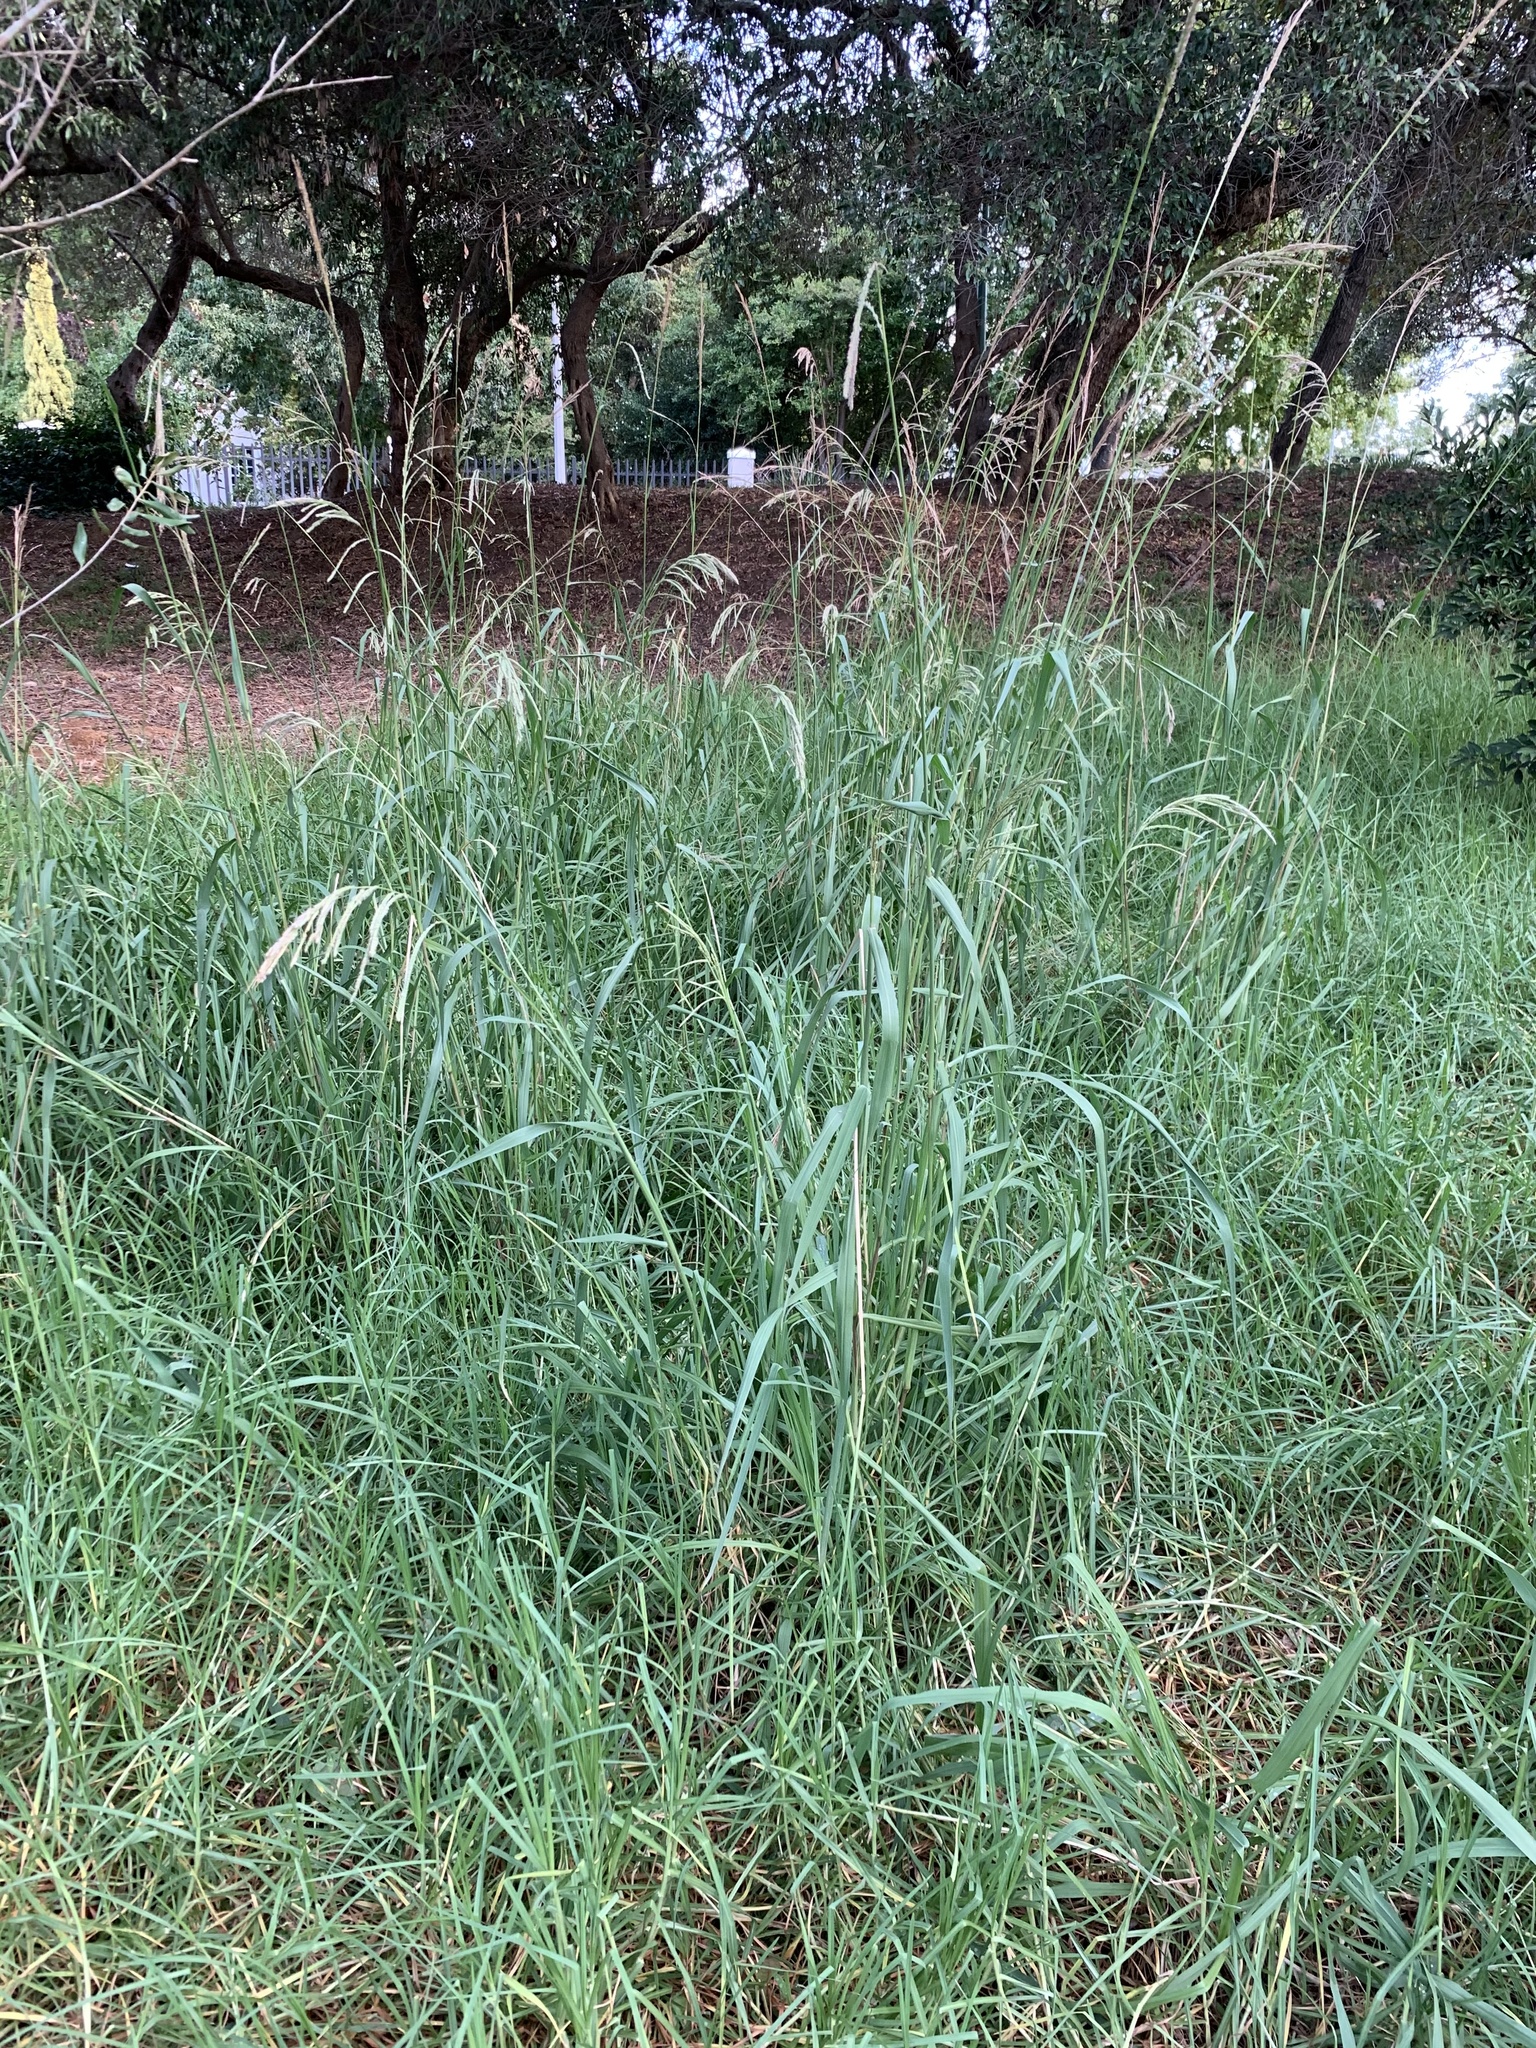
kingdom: Plantae
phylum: Tracheophyta
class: Liliopsida
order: Poales
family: Poaceae
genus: Paspalum
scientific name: Paspalum urvillei
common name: Vasey's grass
